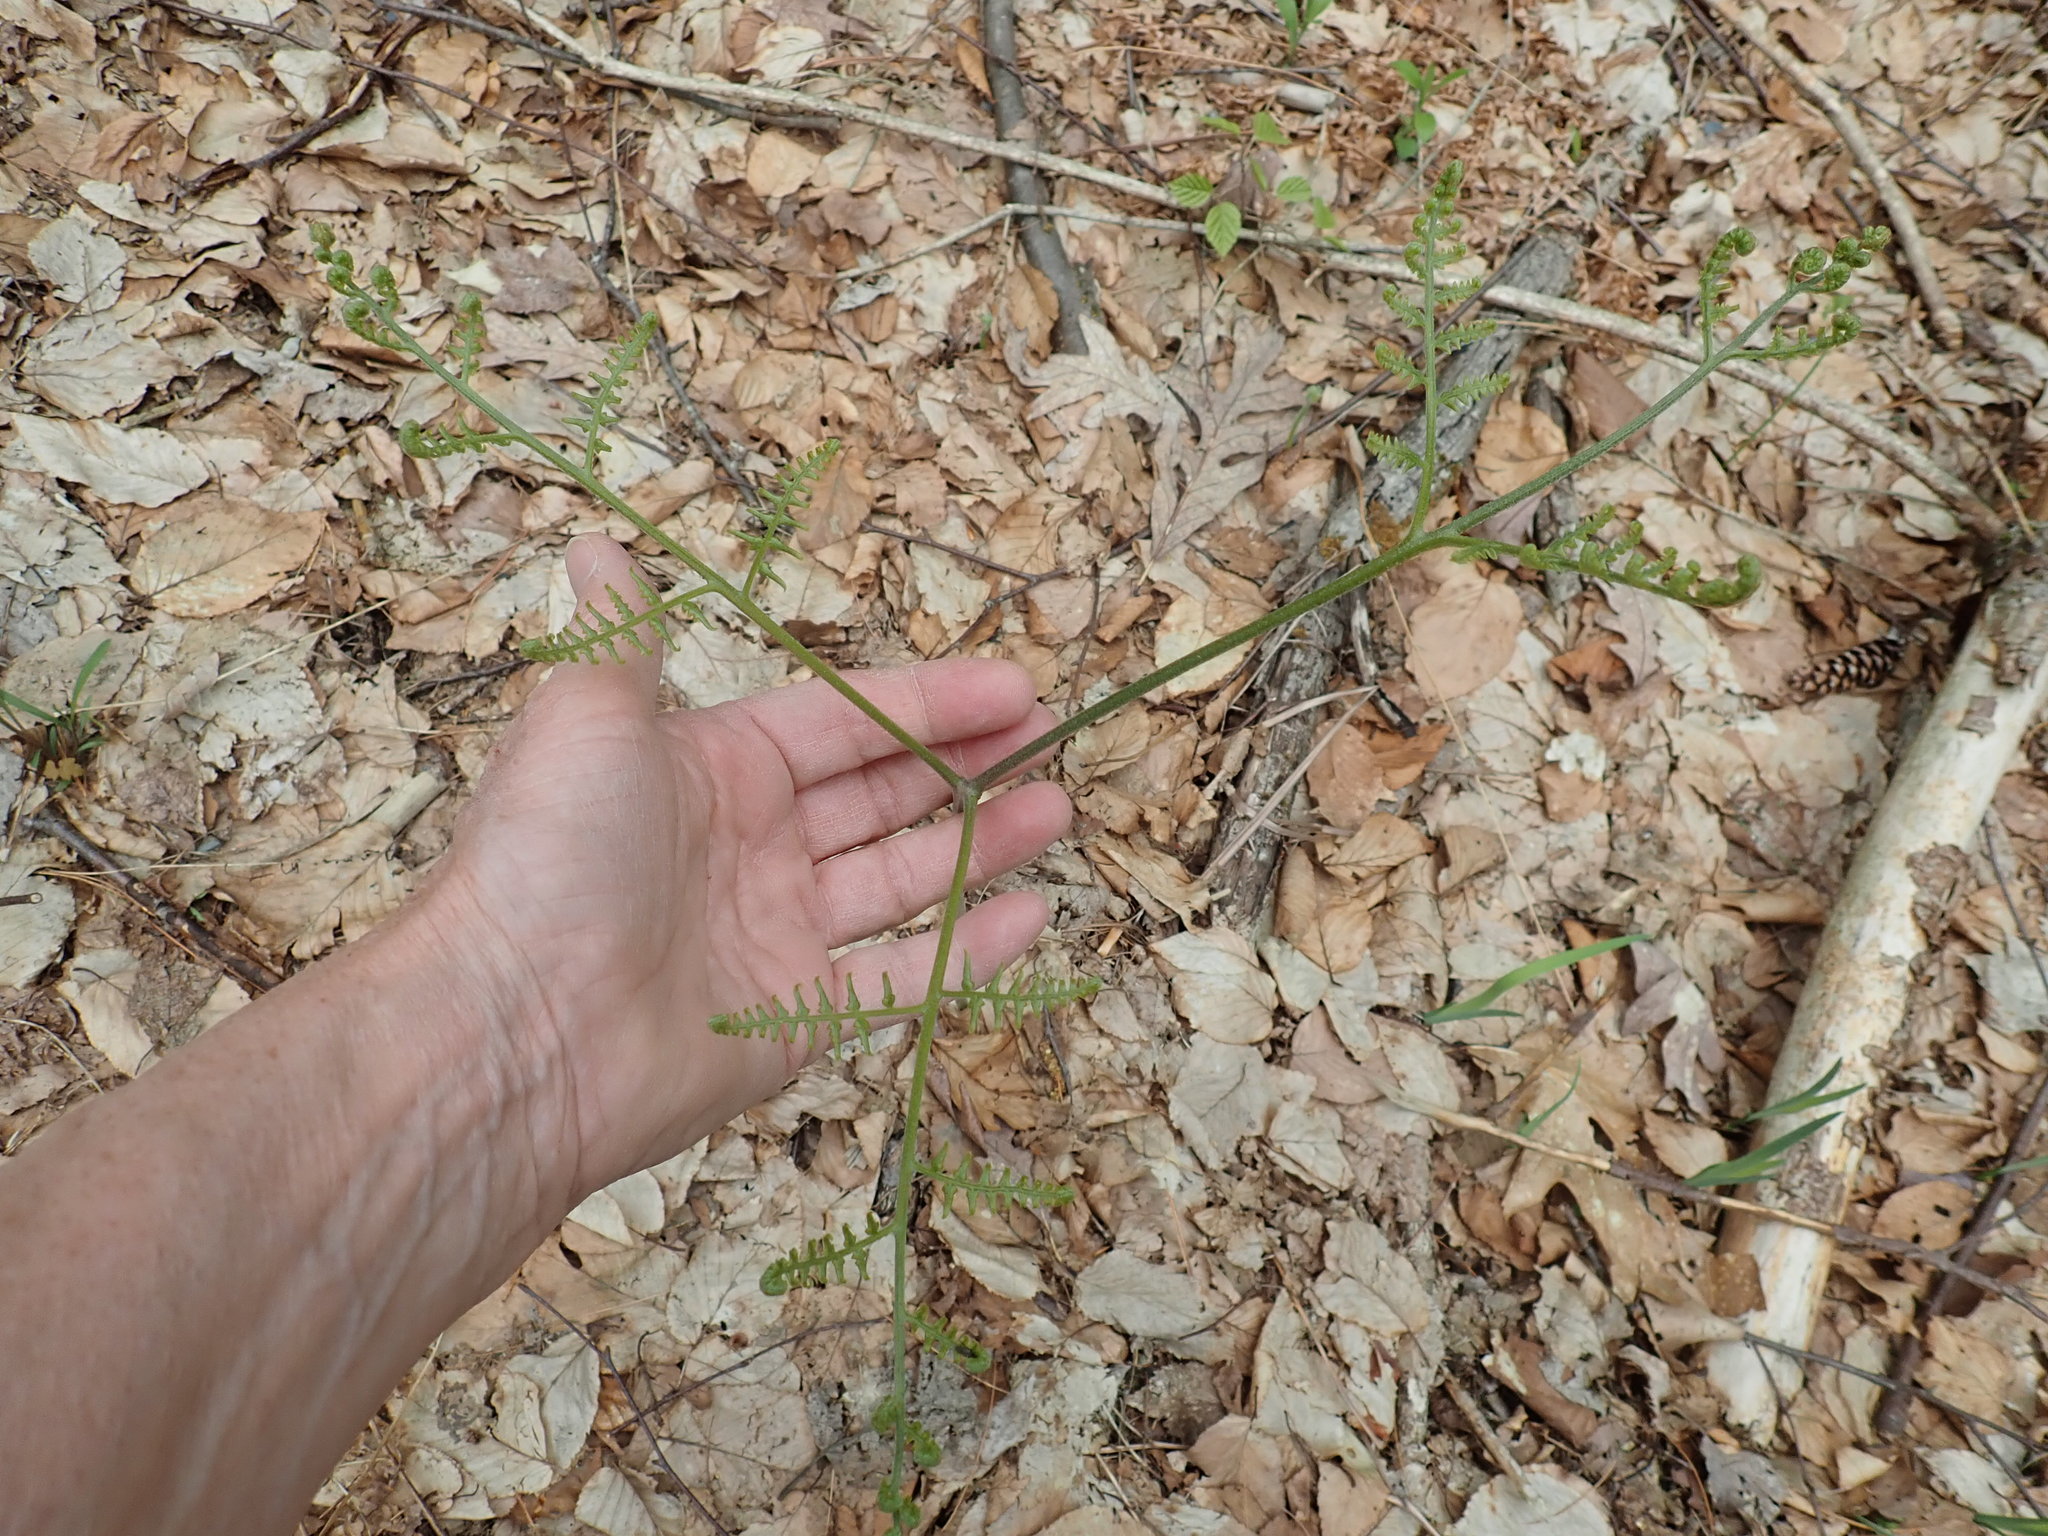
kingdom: Plantae
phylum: Tracheophyta
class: Polypodiopsida
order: Polypodiales
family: Dennstaedtiaceae
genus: Pteridium
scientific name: Pteridium aquilinum
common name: Bracken
